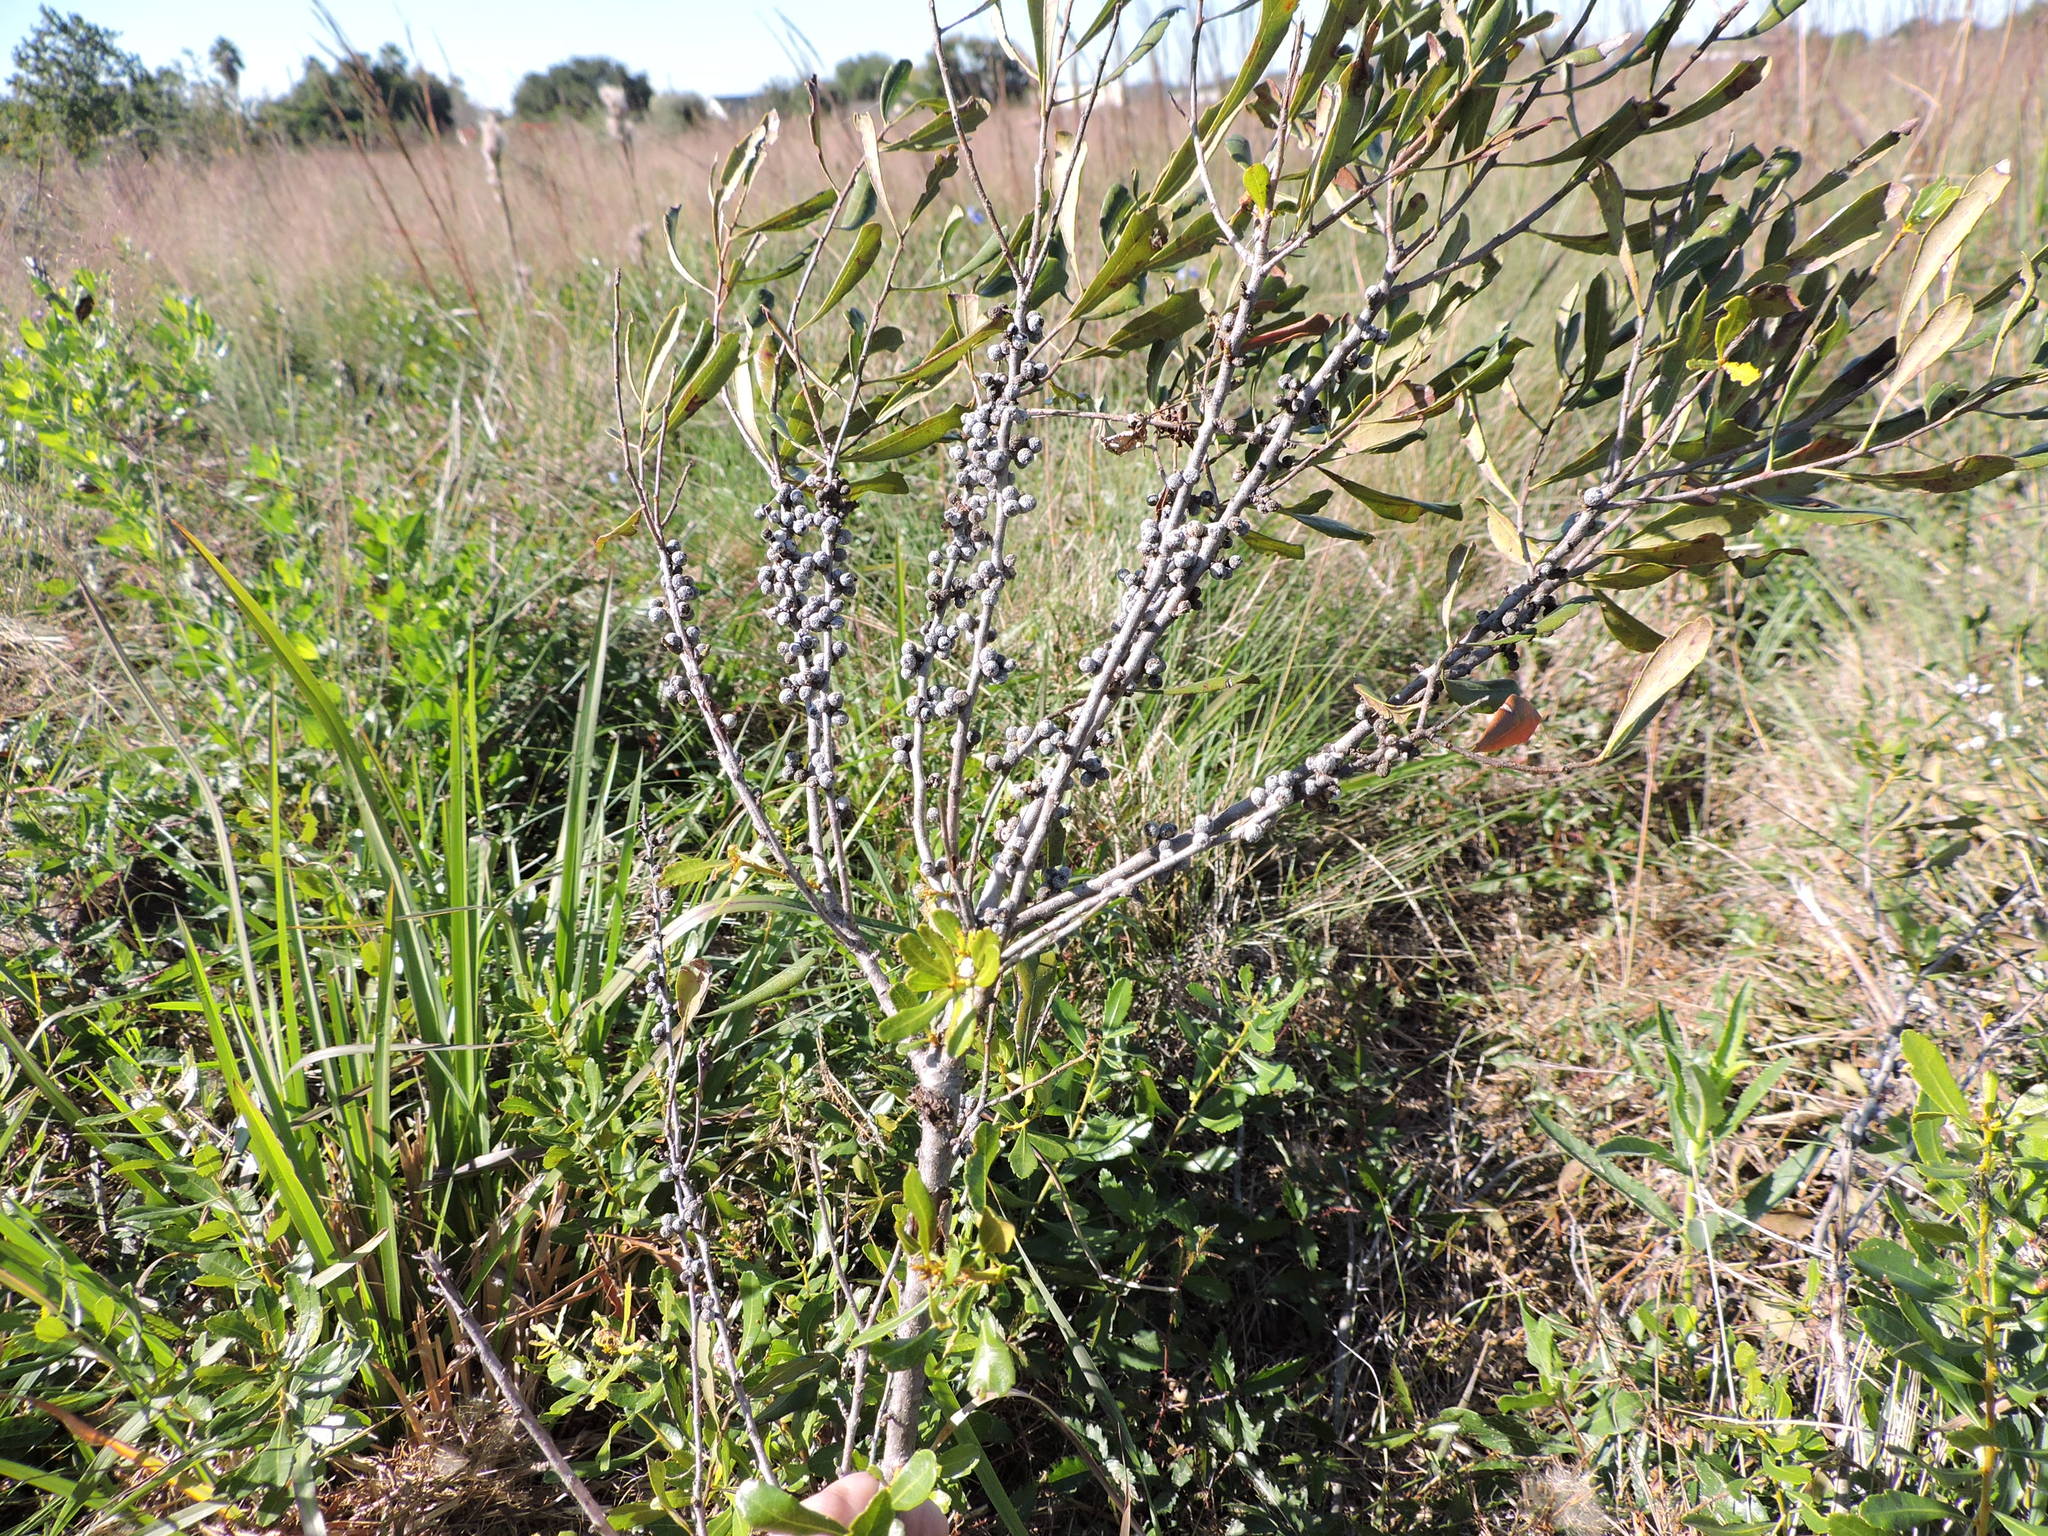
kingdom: Plantae
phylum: Tracheophyta
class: Magnoliopsida
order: Fagales
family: Myricaceae
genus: Morella
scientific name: Morella cerifera
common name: Wax myrtle
